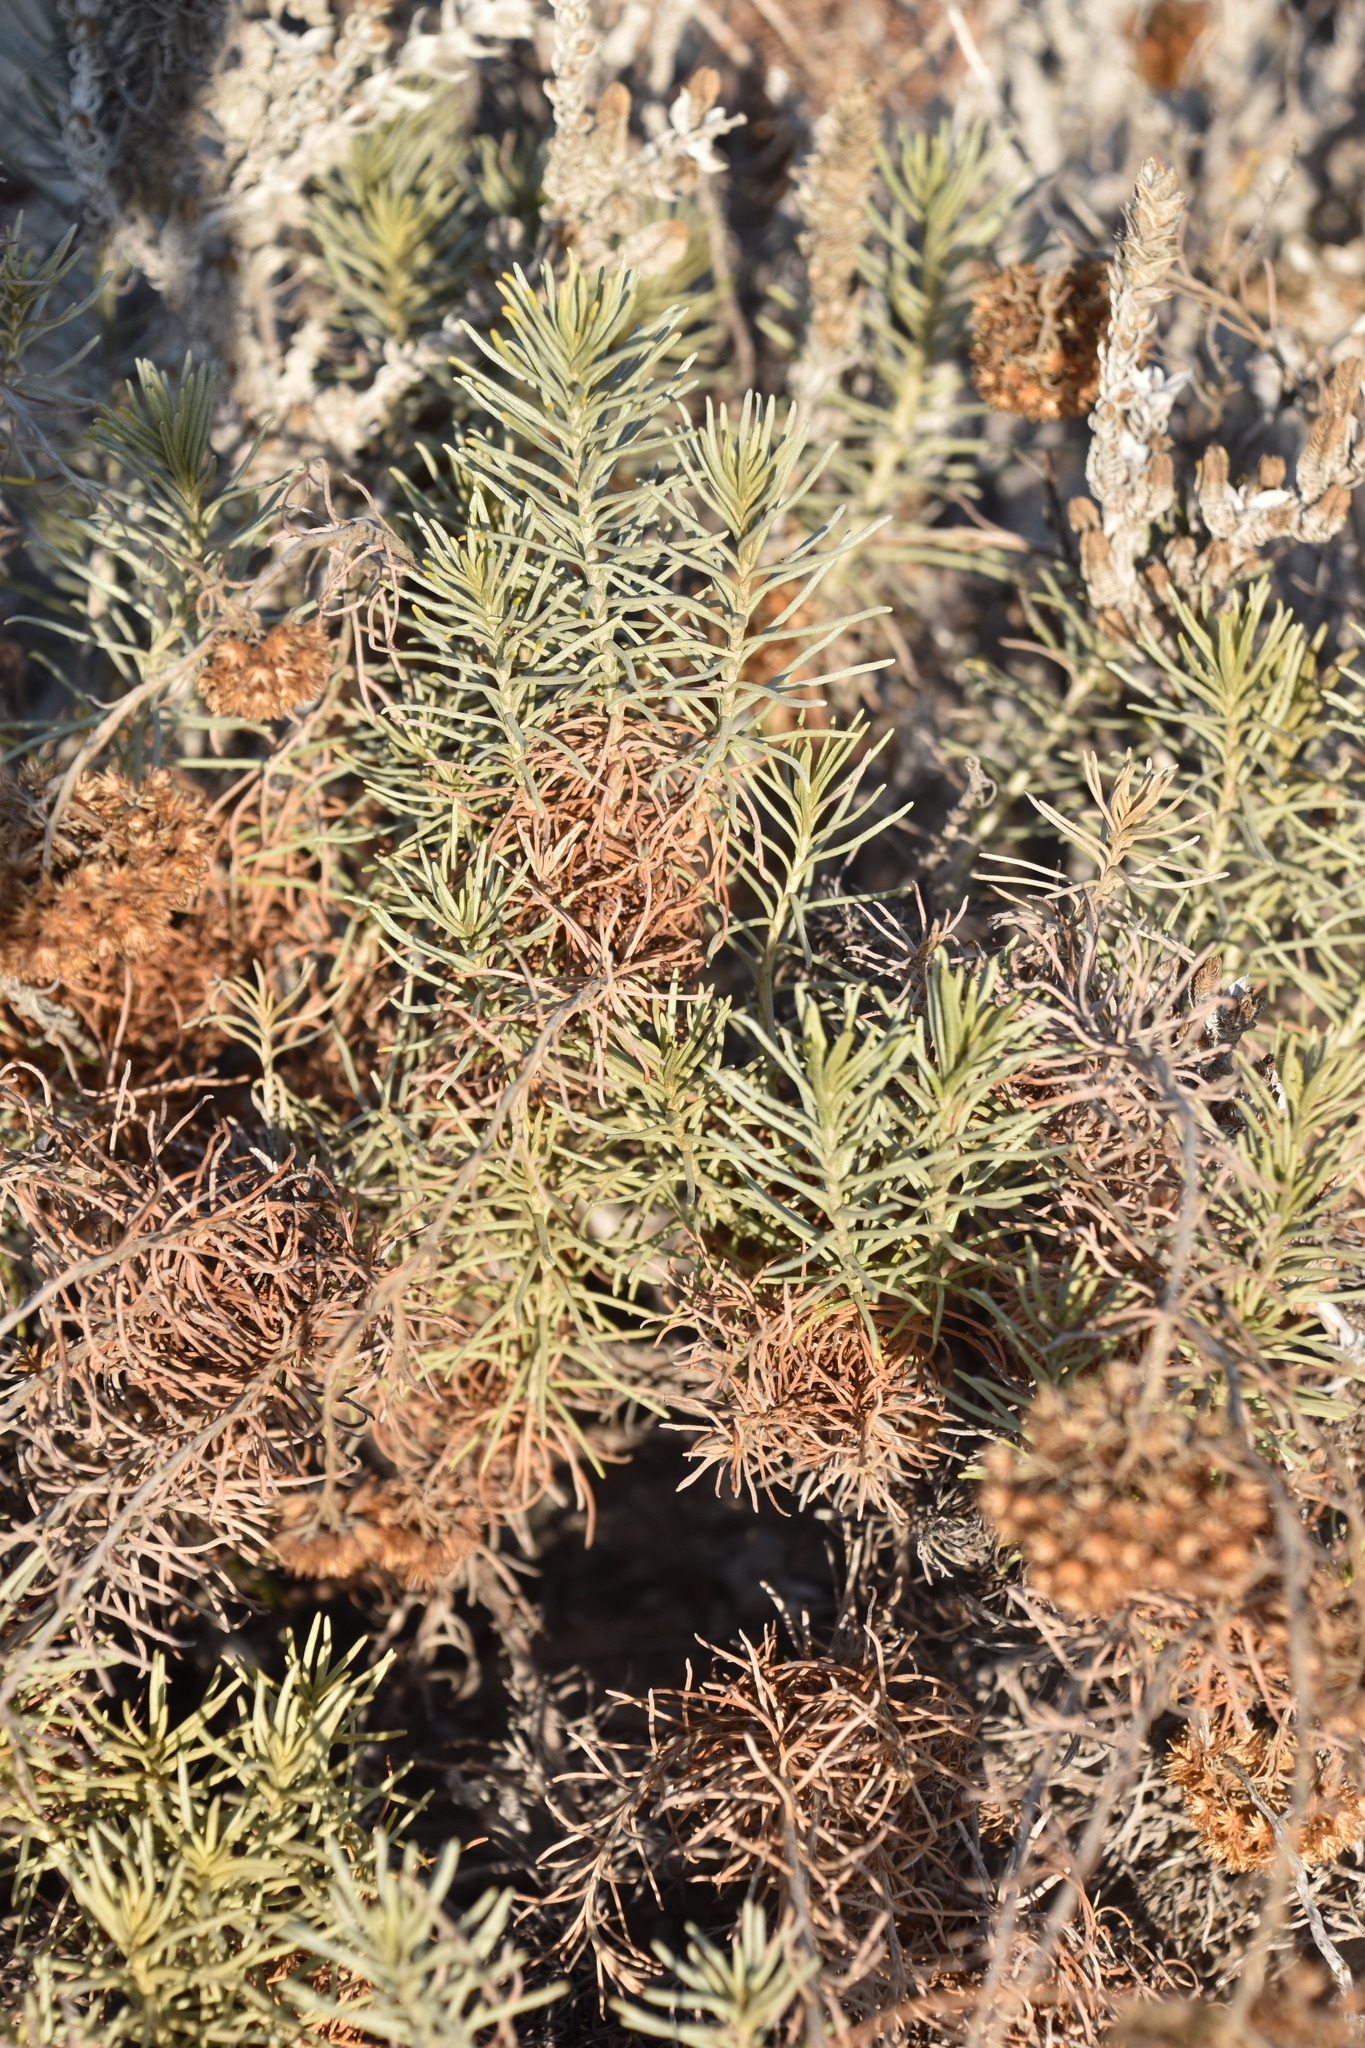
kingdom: Plantae
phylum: Tracheophyta
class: Magnoliopsida
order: Asterales
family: Asteraceae
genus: Helichrysum
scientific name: Helichrysum serotinum
